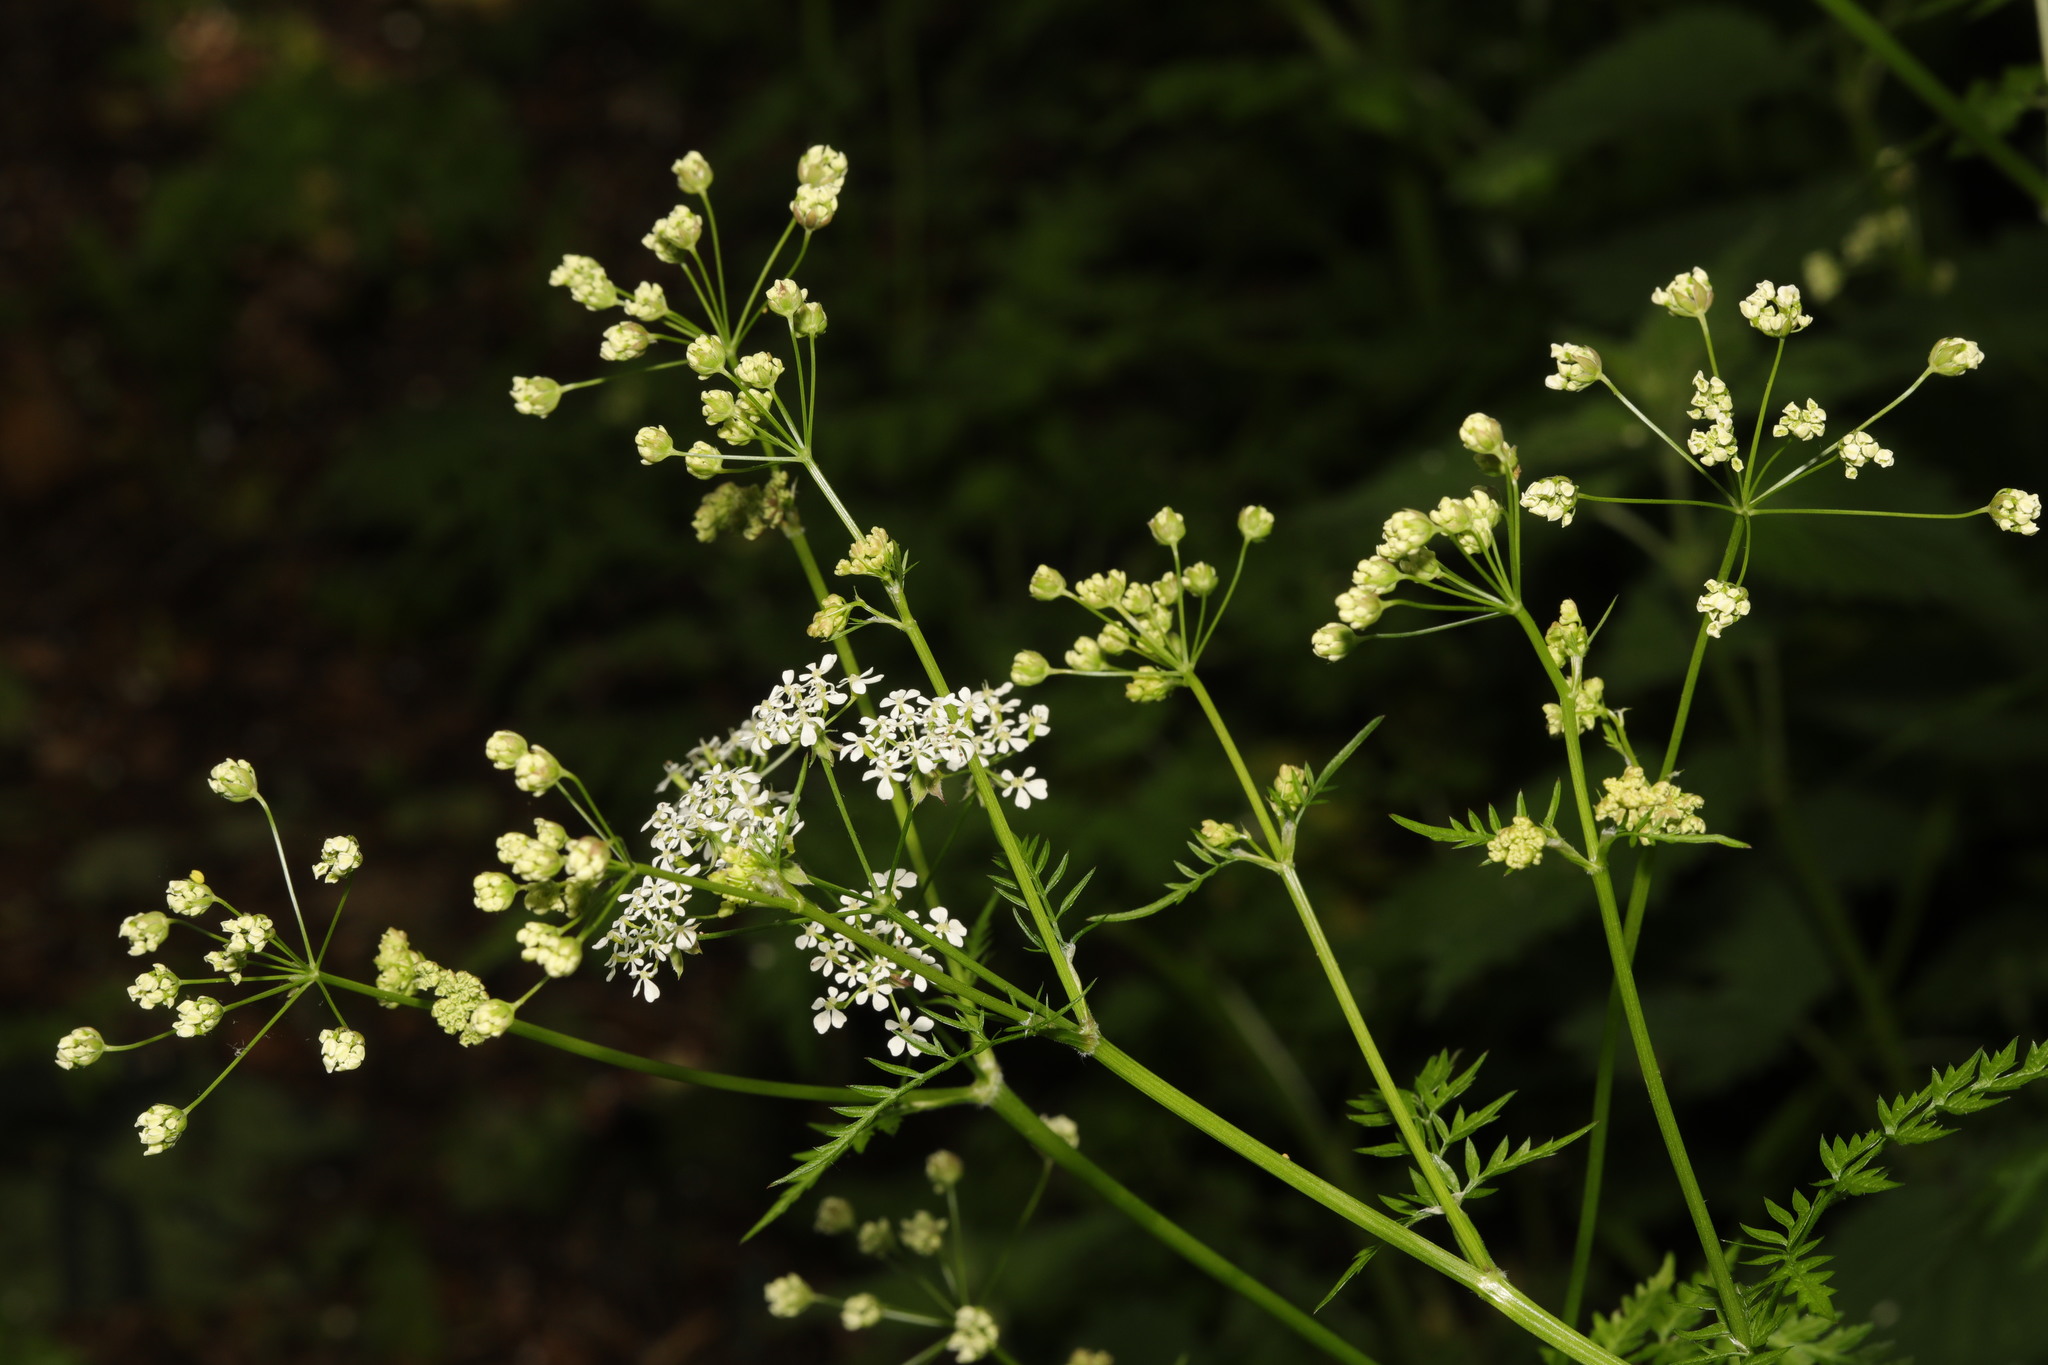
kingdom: Plantae
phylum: Tracheophyta
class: Magnoliopsida
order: Apiales
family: Apiaceae
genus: Anthriscus
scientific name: Anthriscus sylvestris
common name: Cow parsley
